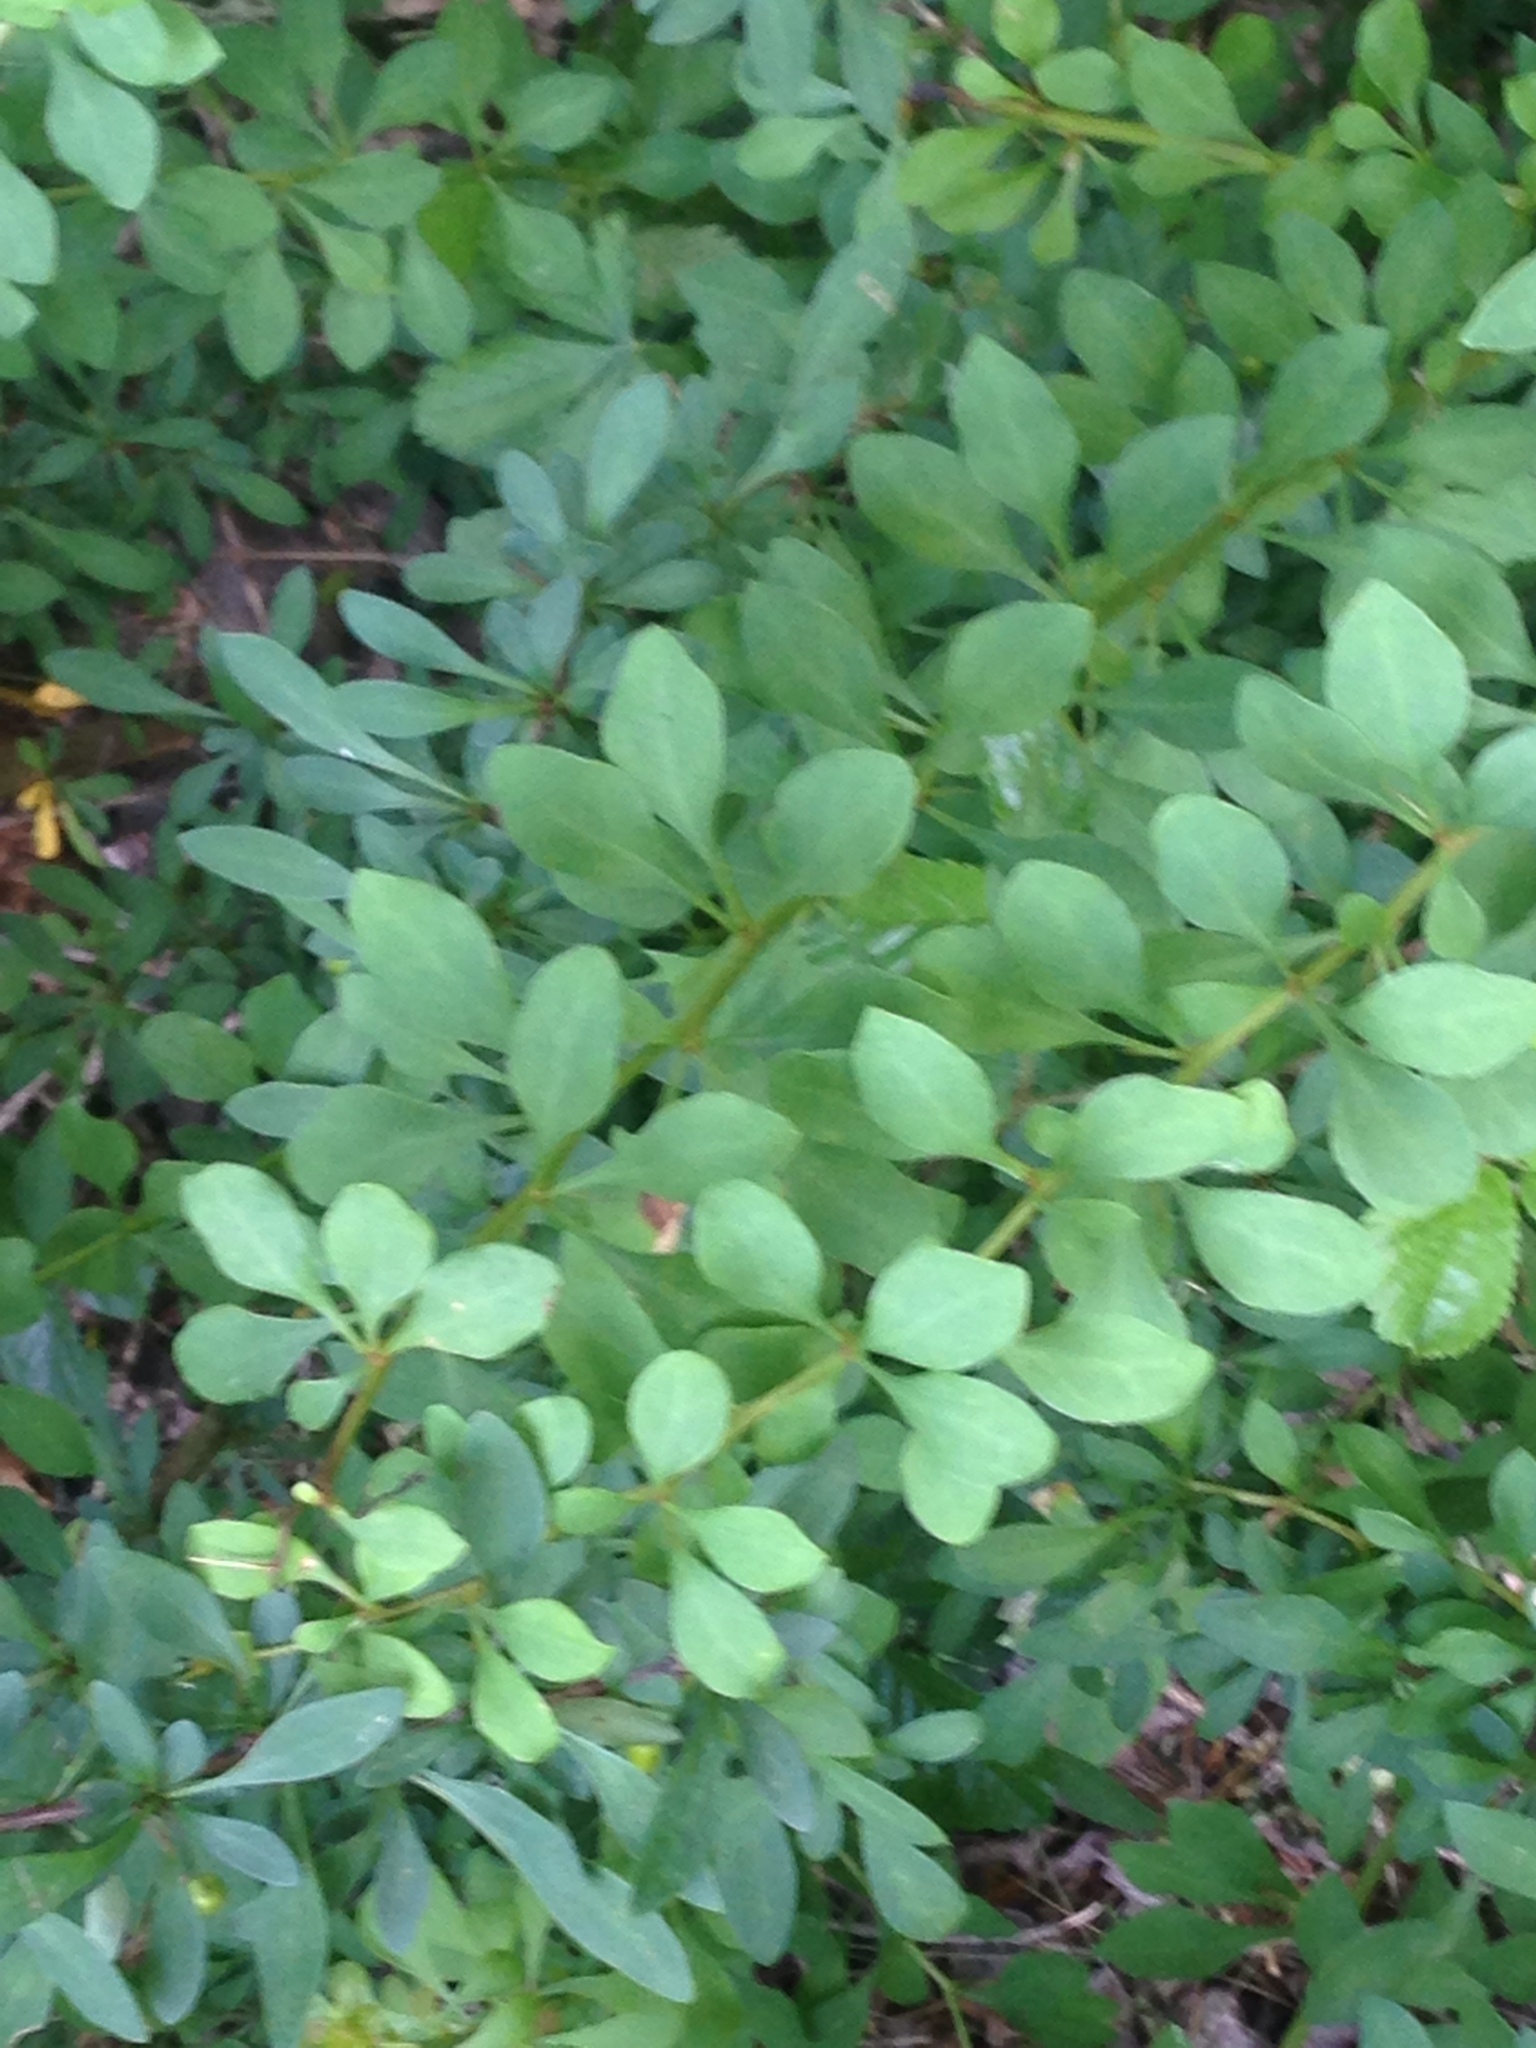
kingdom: Plantae
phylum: Tracheophyta
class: Magnoliopsida
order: Ranunculales
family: Berberidaceae
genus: Berberis
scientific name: Berberis thunbergii
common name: Japanese barberry
